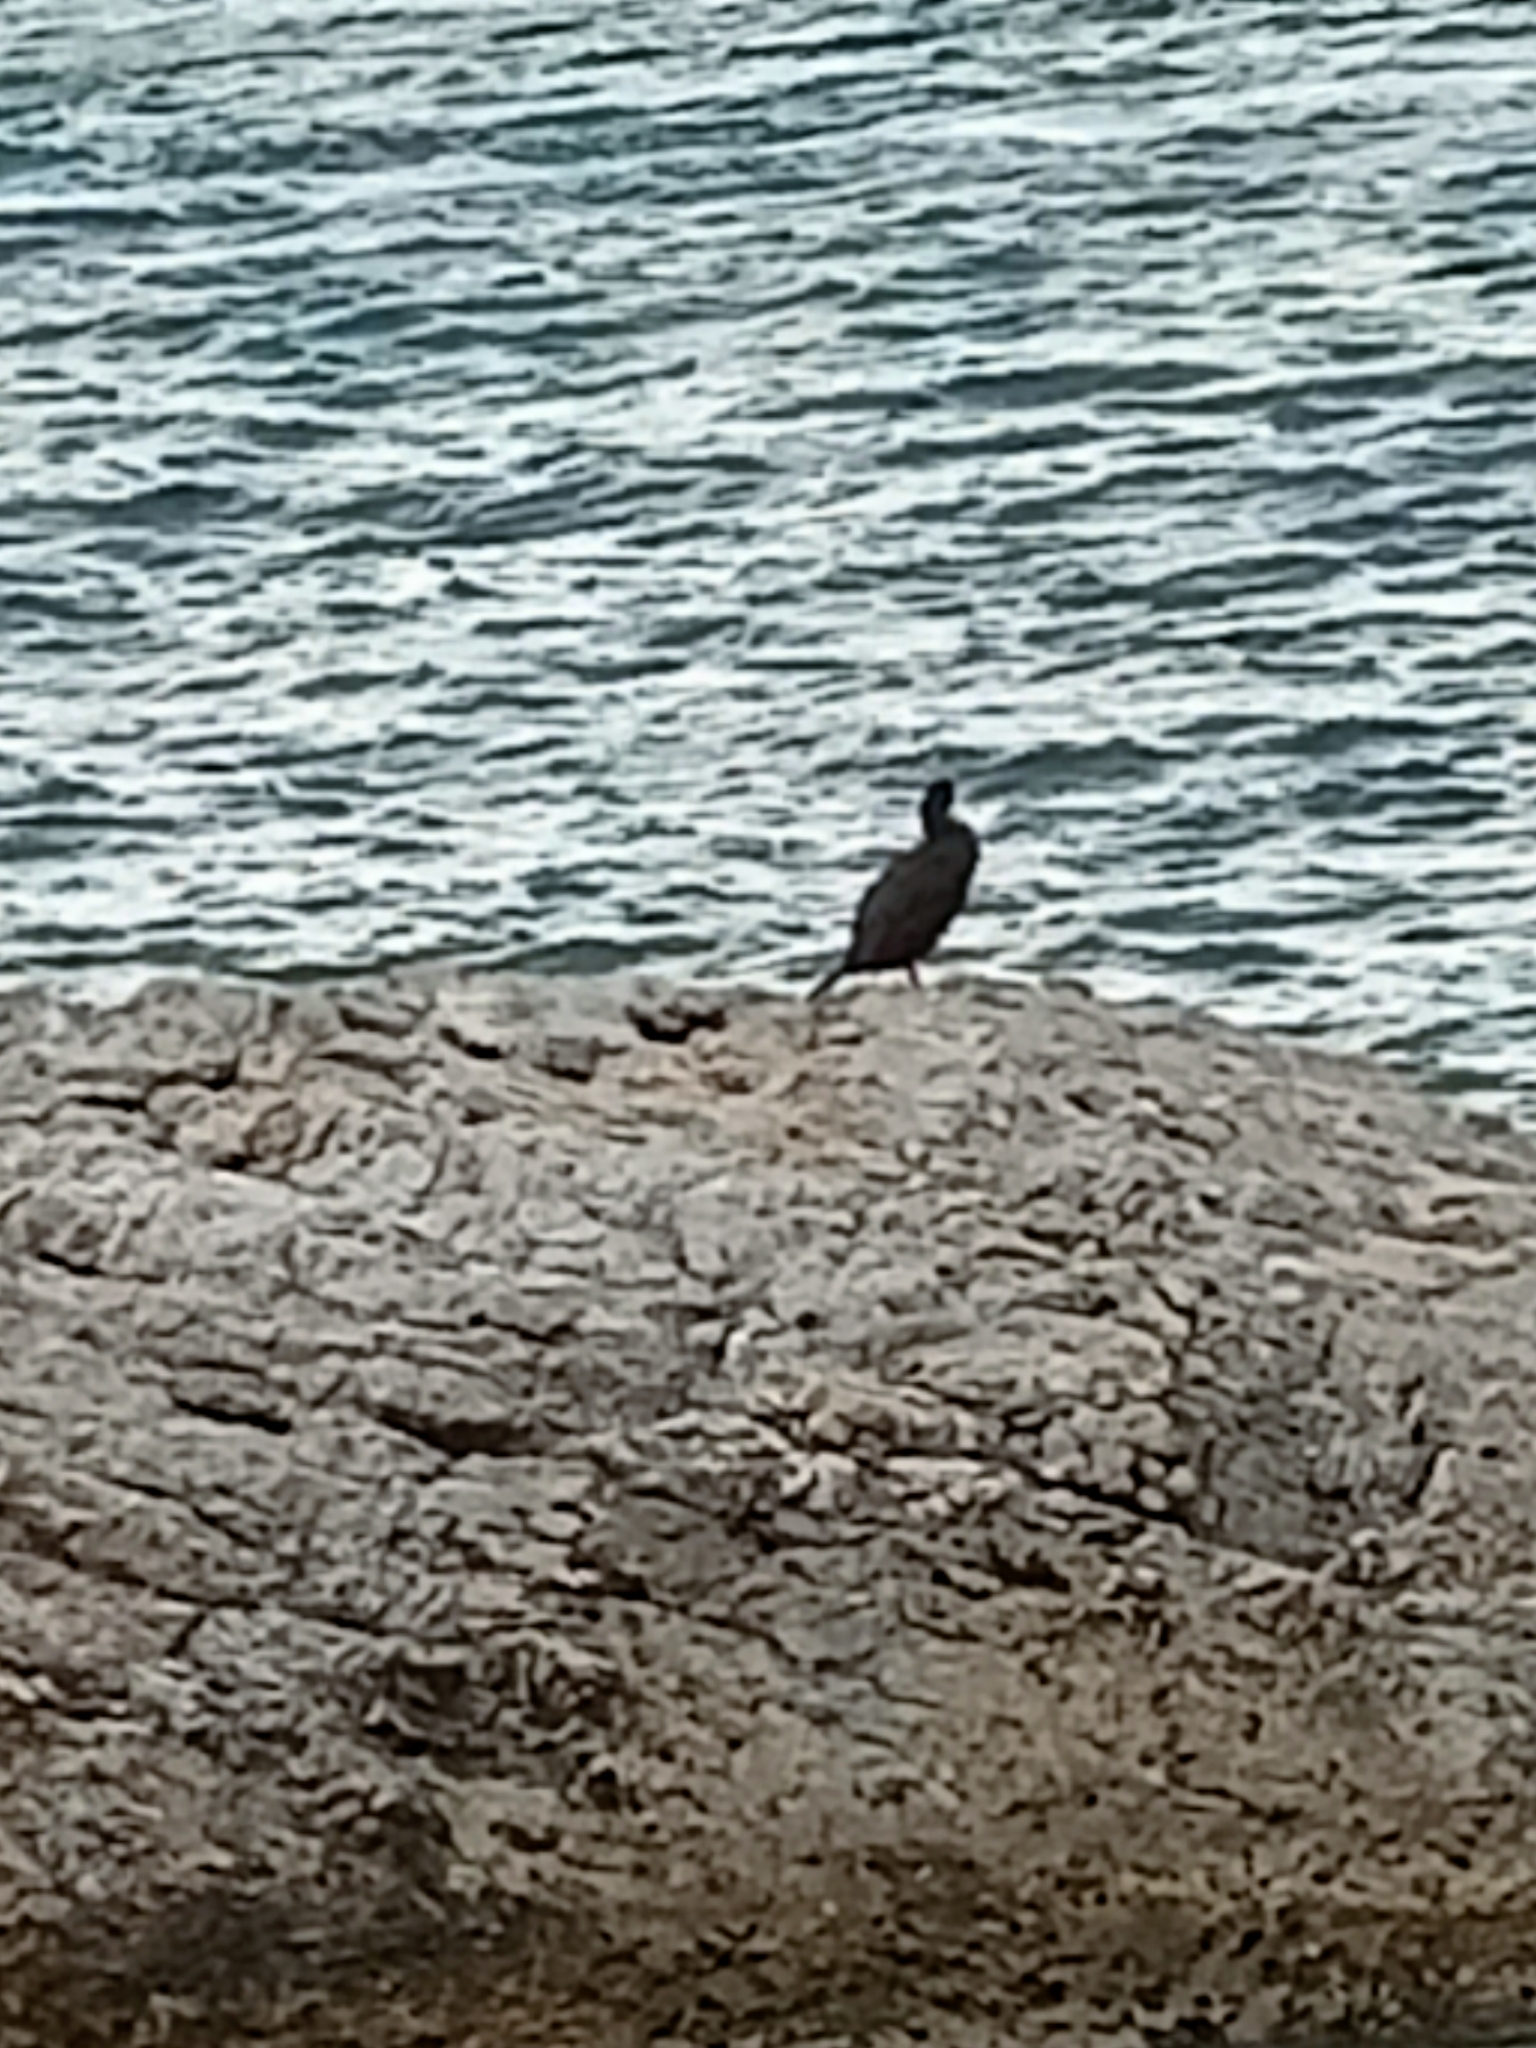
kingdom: Animalia
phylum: Chordata
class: Aves
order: Suliformes
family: Phalacrocoracidae
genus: Phalacrocorax
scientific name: Phalacrocorax carbo
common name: Great cormorant
